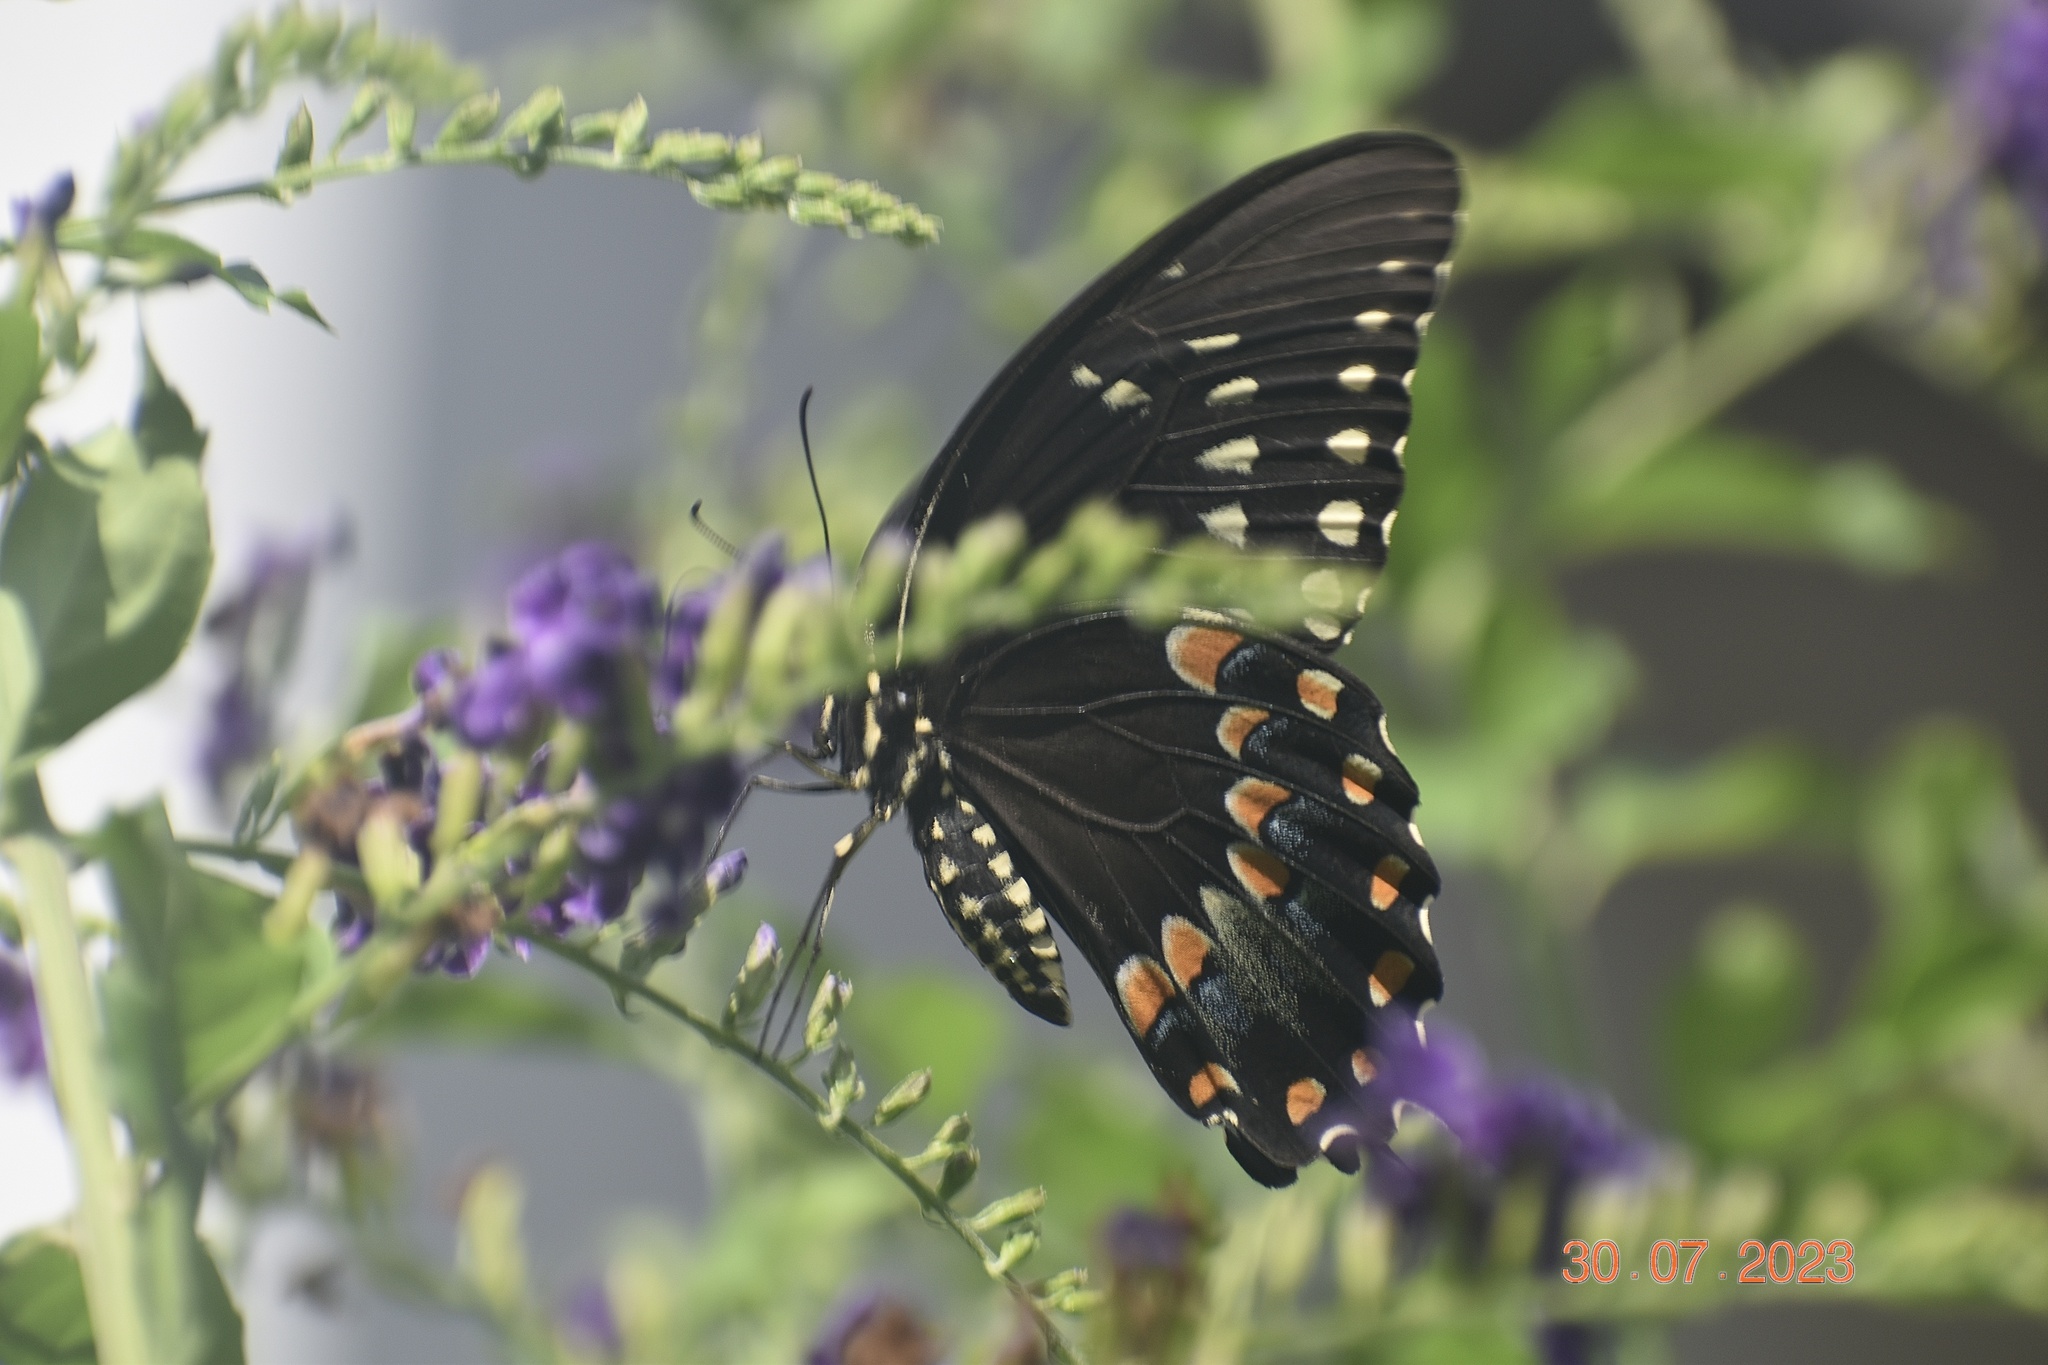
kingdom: Animalia
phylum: Arthropoda
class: Insecta
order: Lepidoptera
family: Papilionidae
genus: Papilio
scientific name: Papilio polyxenes
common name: Black swallowtail
